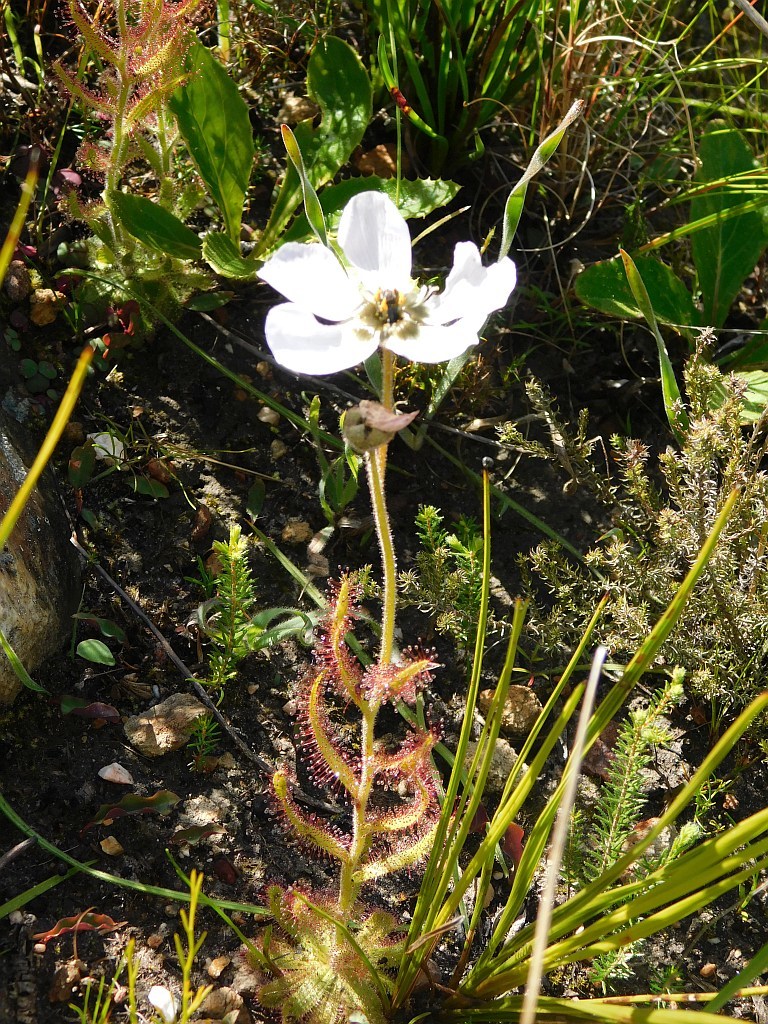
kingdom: Plantae
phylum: Tracheophyta
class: Magnoliopsida
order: Caryophyllales
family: Droseraceae
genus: Drosera
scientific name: Drosera cistiflora
